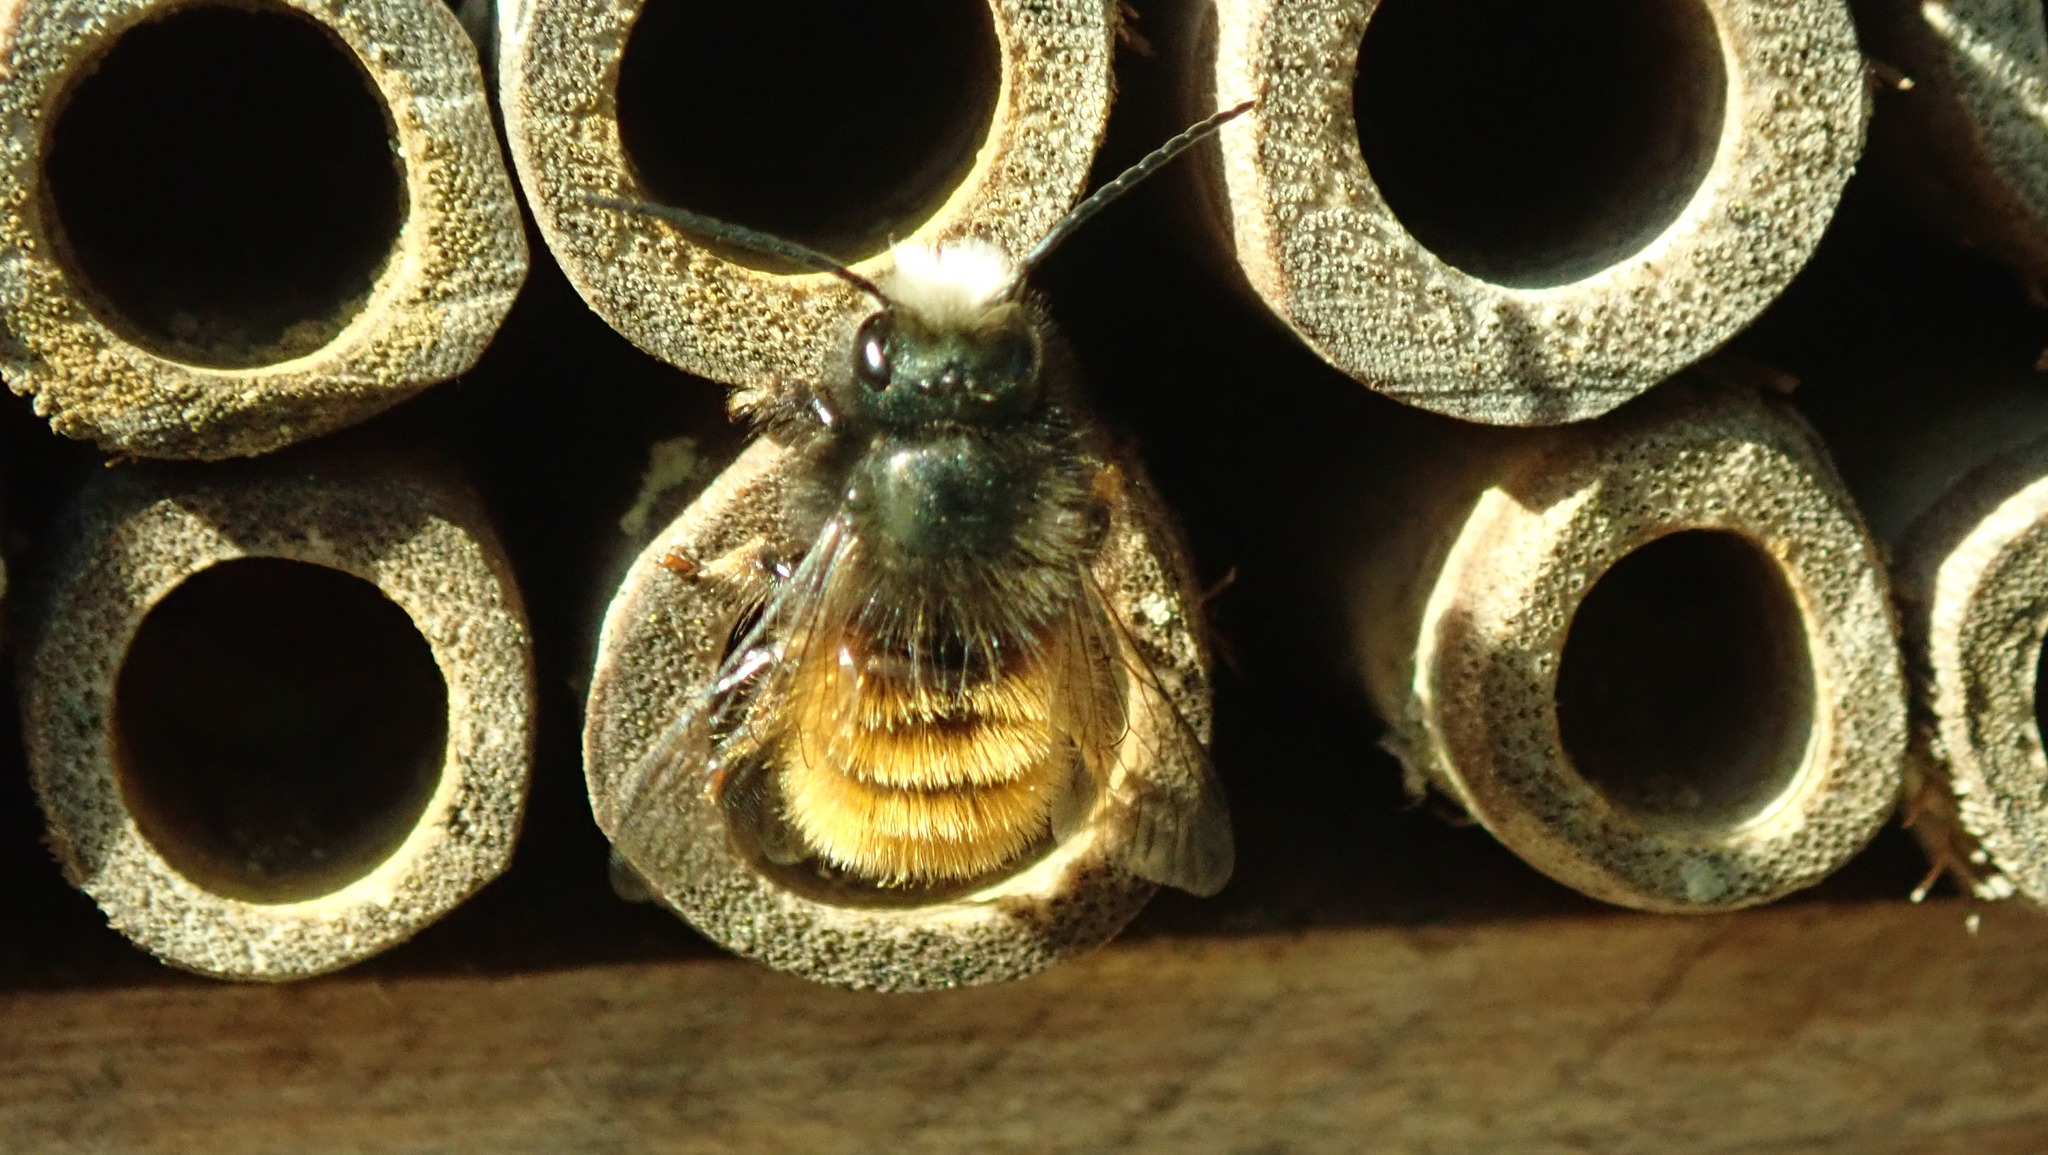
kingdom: Animalia
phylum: Arthropoda
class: Insecta
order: Hymenoptera
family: Megachilidae
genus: Osmia
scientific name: Osmia cornuta
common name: Mason bee
